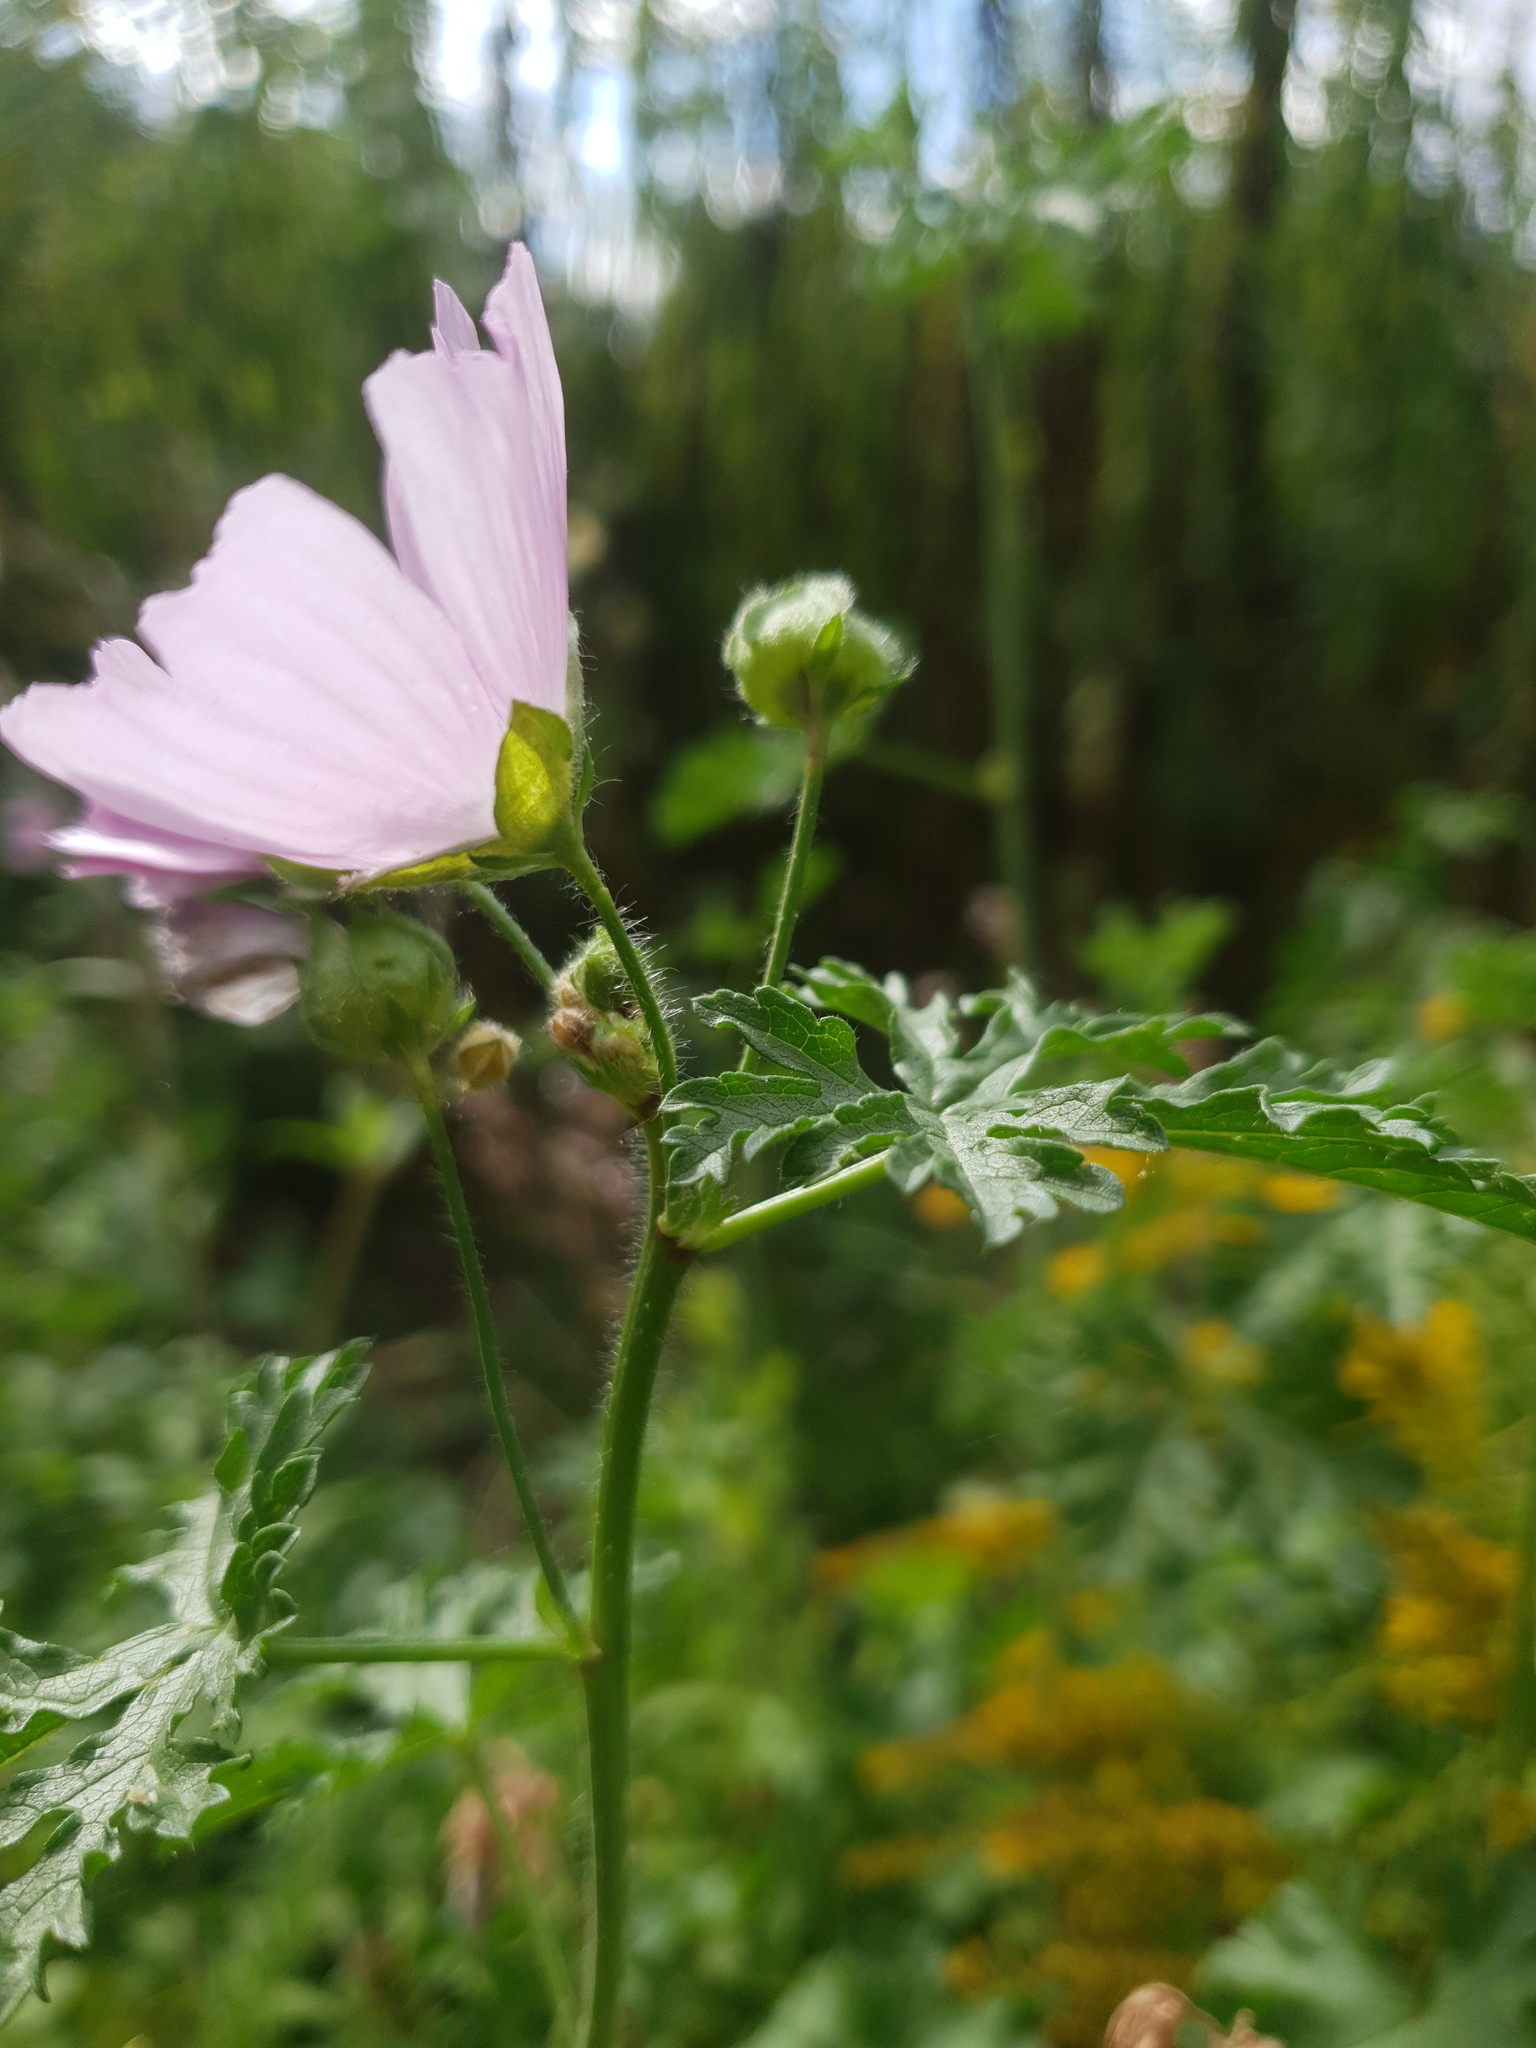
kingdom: Plantae
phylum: Tracheophyta
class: Magnoliopsida
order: Malvales
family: Malvaceae
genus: Malva
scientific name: Malva moschata
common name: Musk mallow
